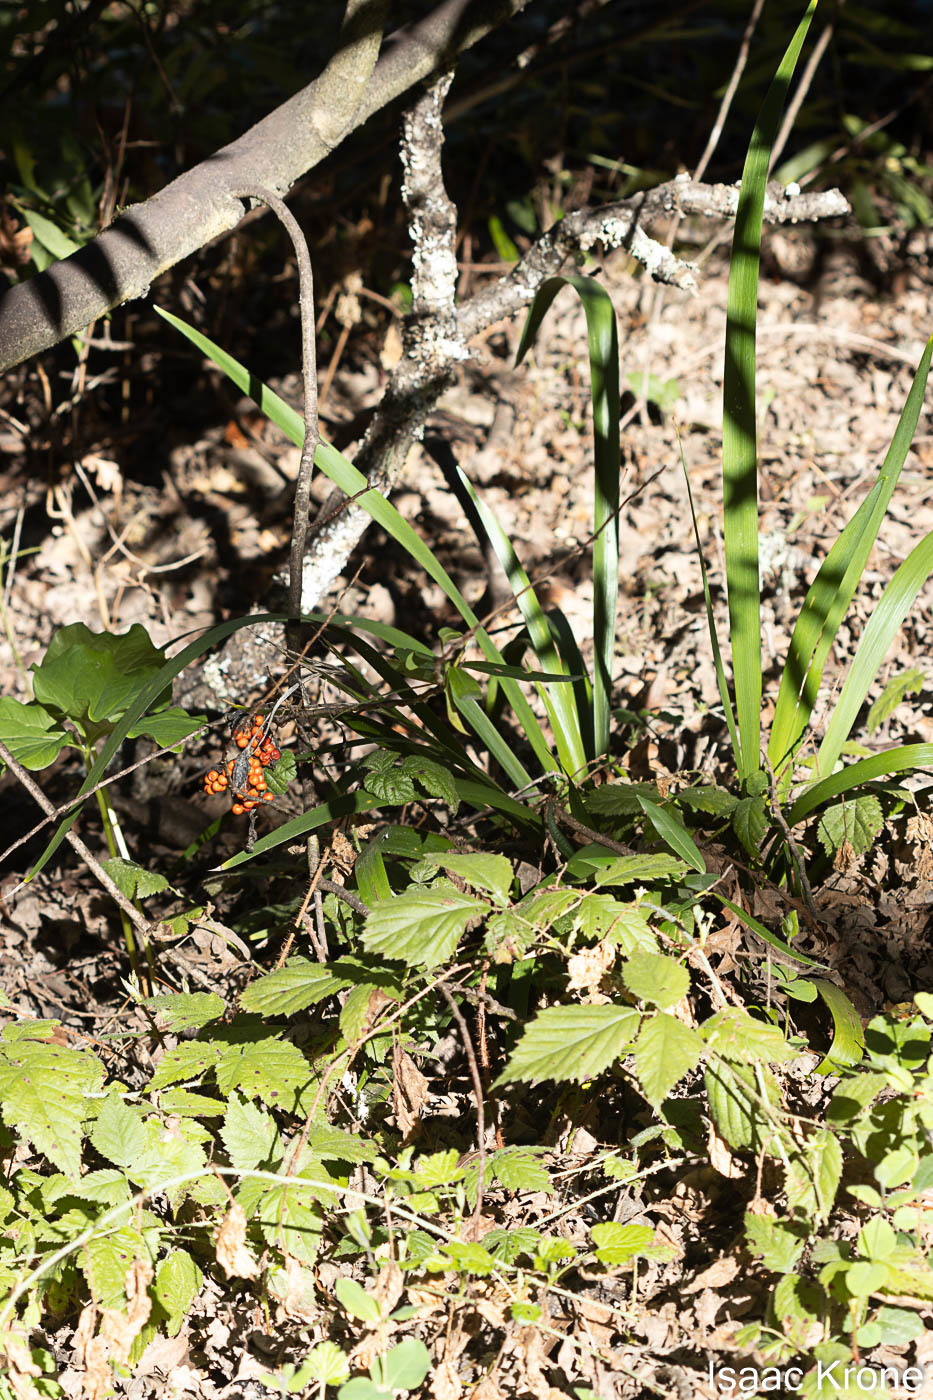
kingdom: Plantae
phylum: Tracheophyta
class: Liliopsida
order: Asparagales
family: Iridaceae
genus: Iris
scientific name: Iris foetidissima
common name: Stinking iris
